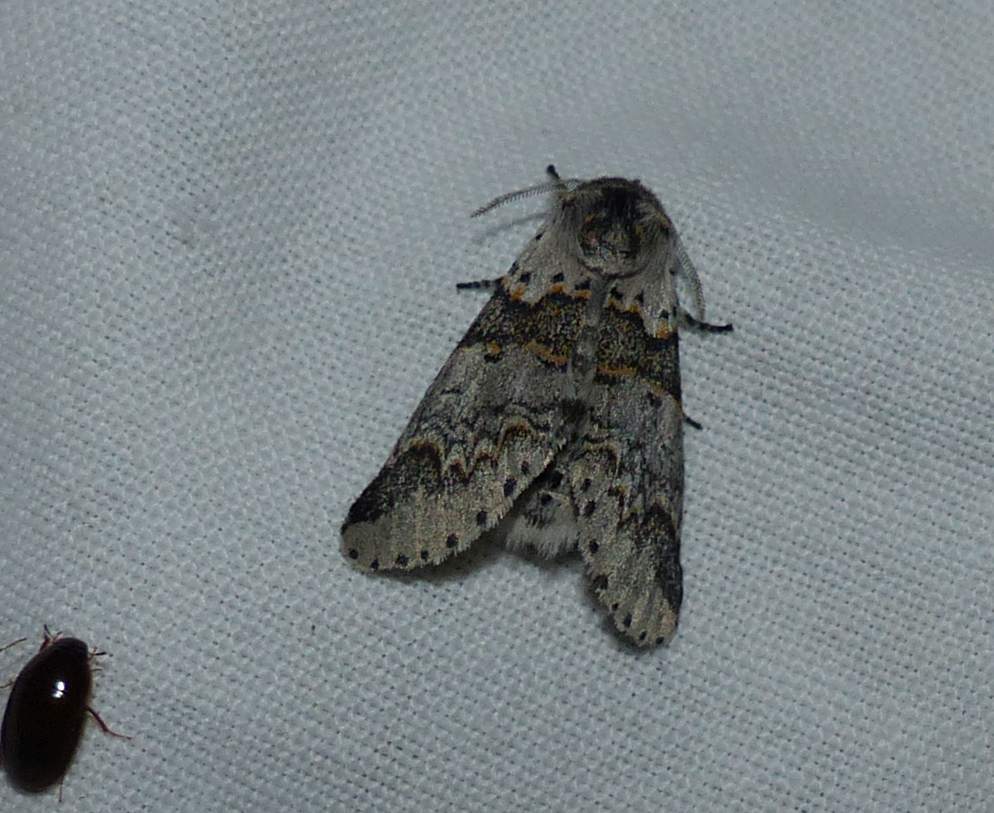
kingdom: Animalia
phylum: Arthropoda
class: Insecta
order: Lepidoptera
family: Notodontidae
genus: Furcula
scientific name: Furcula occidentalis
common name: Western furcula moth
